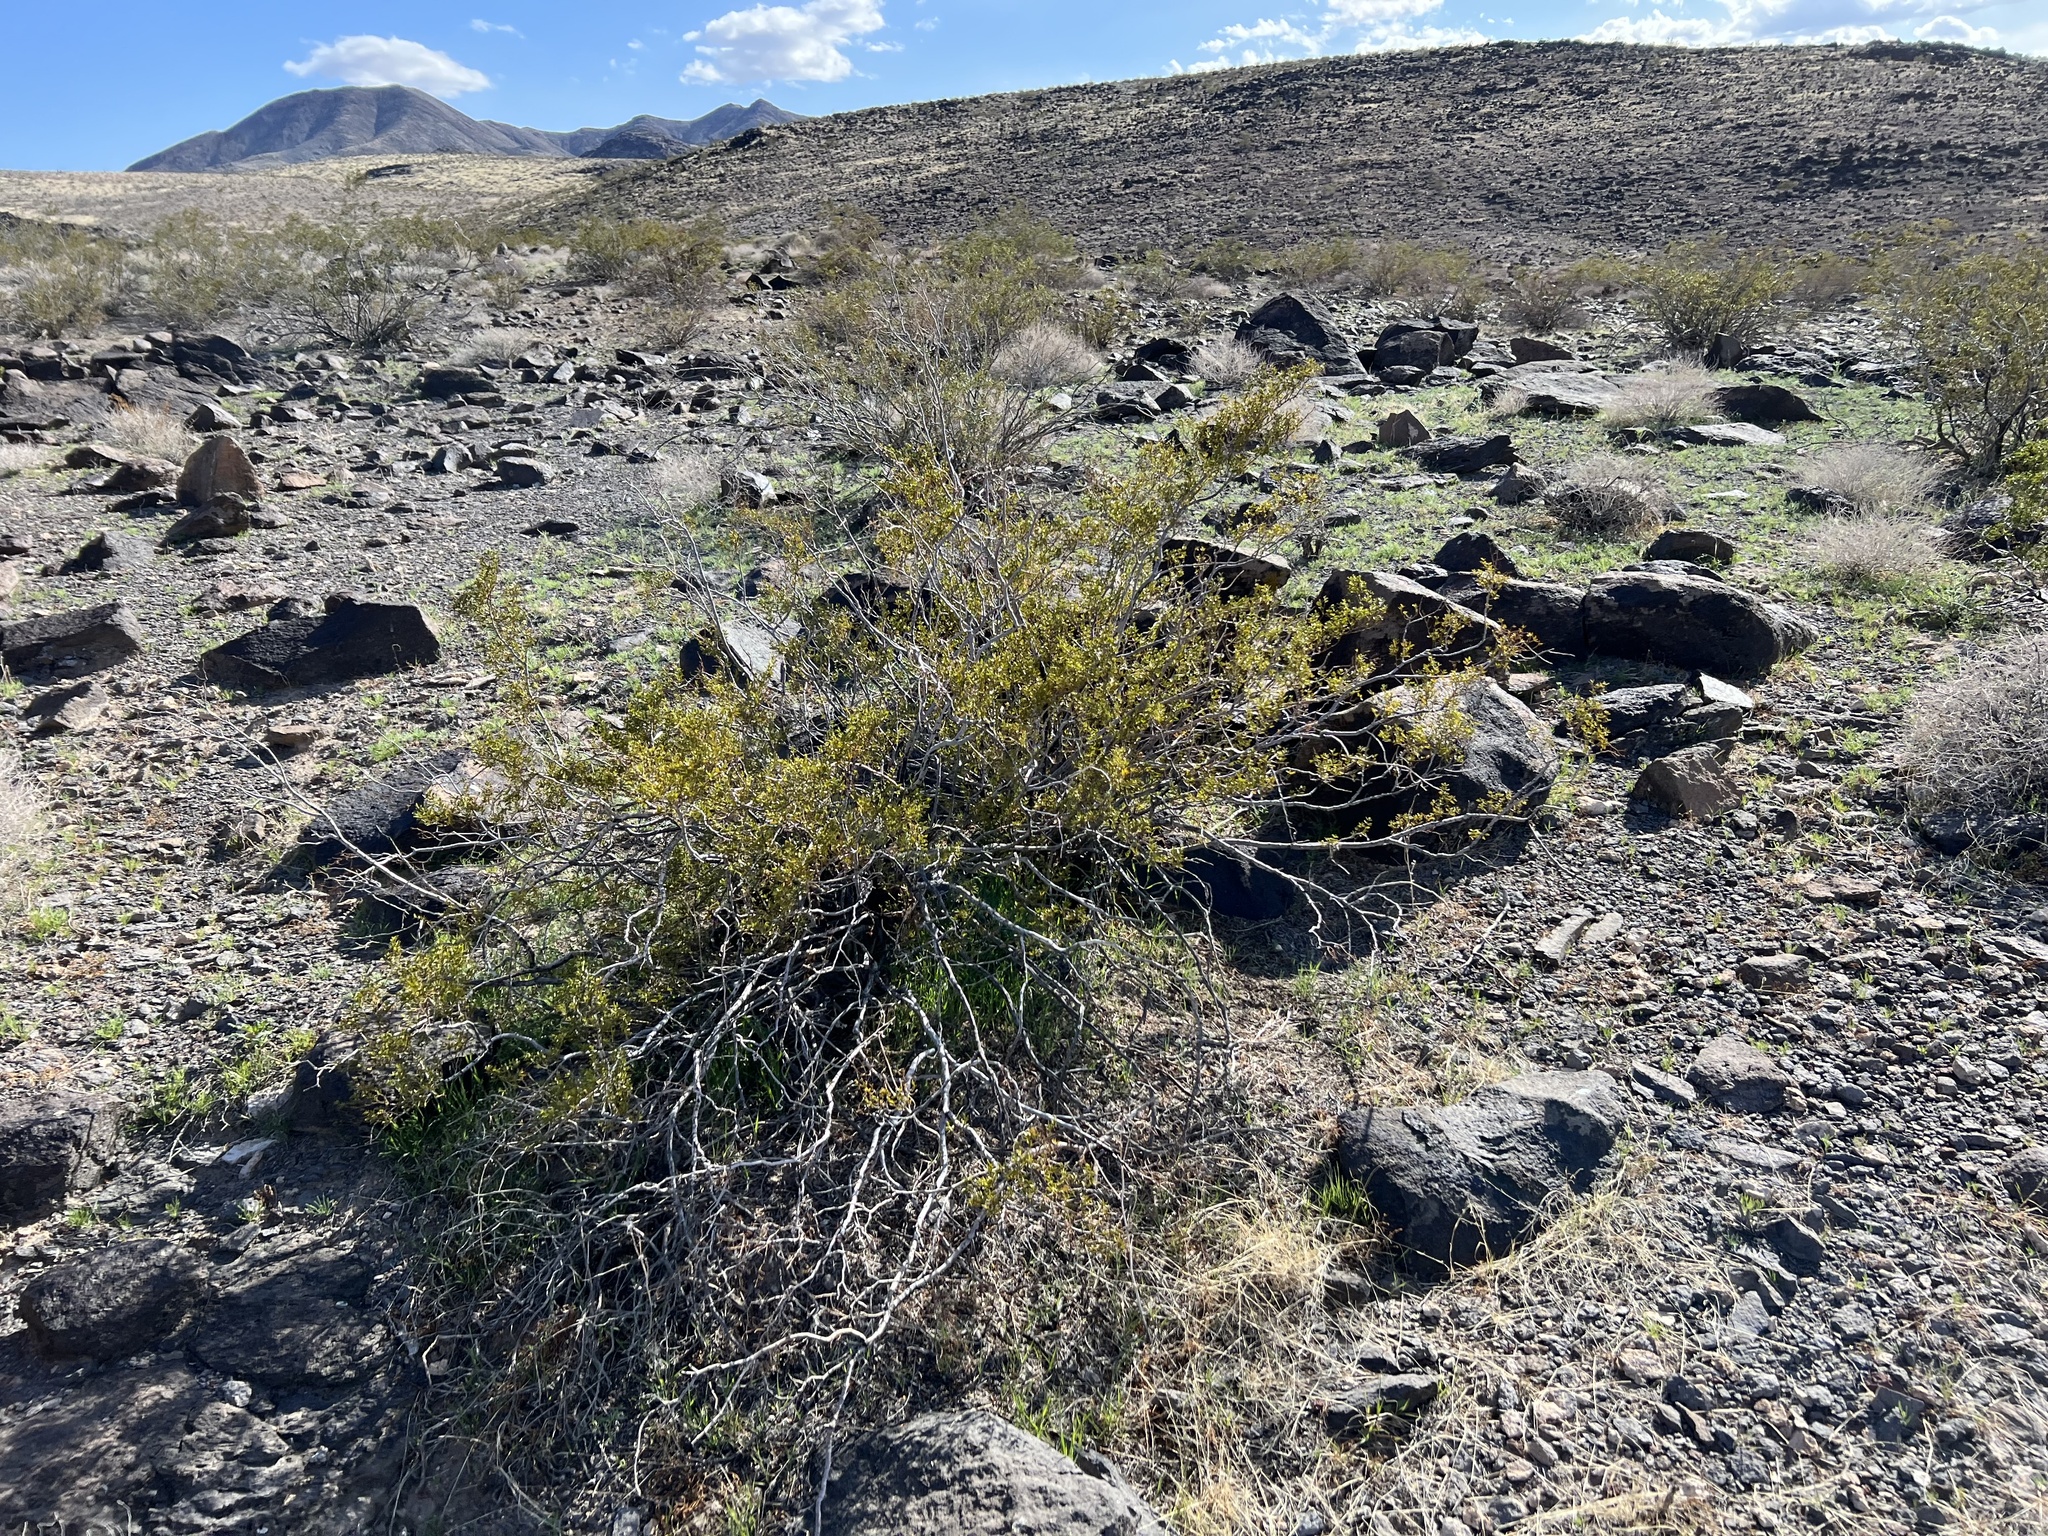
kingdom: Plantae
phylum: Tracheophyta
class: Magnoliopsida
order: Zygophyllales
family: Zygophyllaceae
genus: Larrea
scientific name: Larrea tridentata
